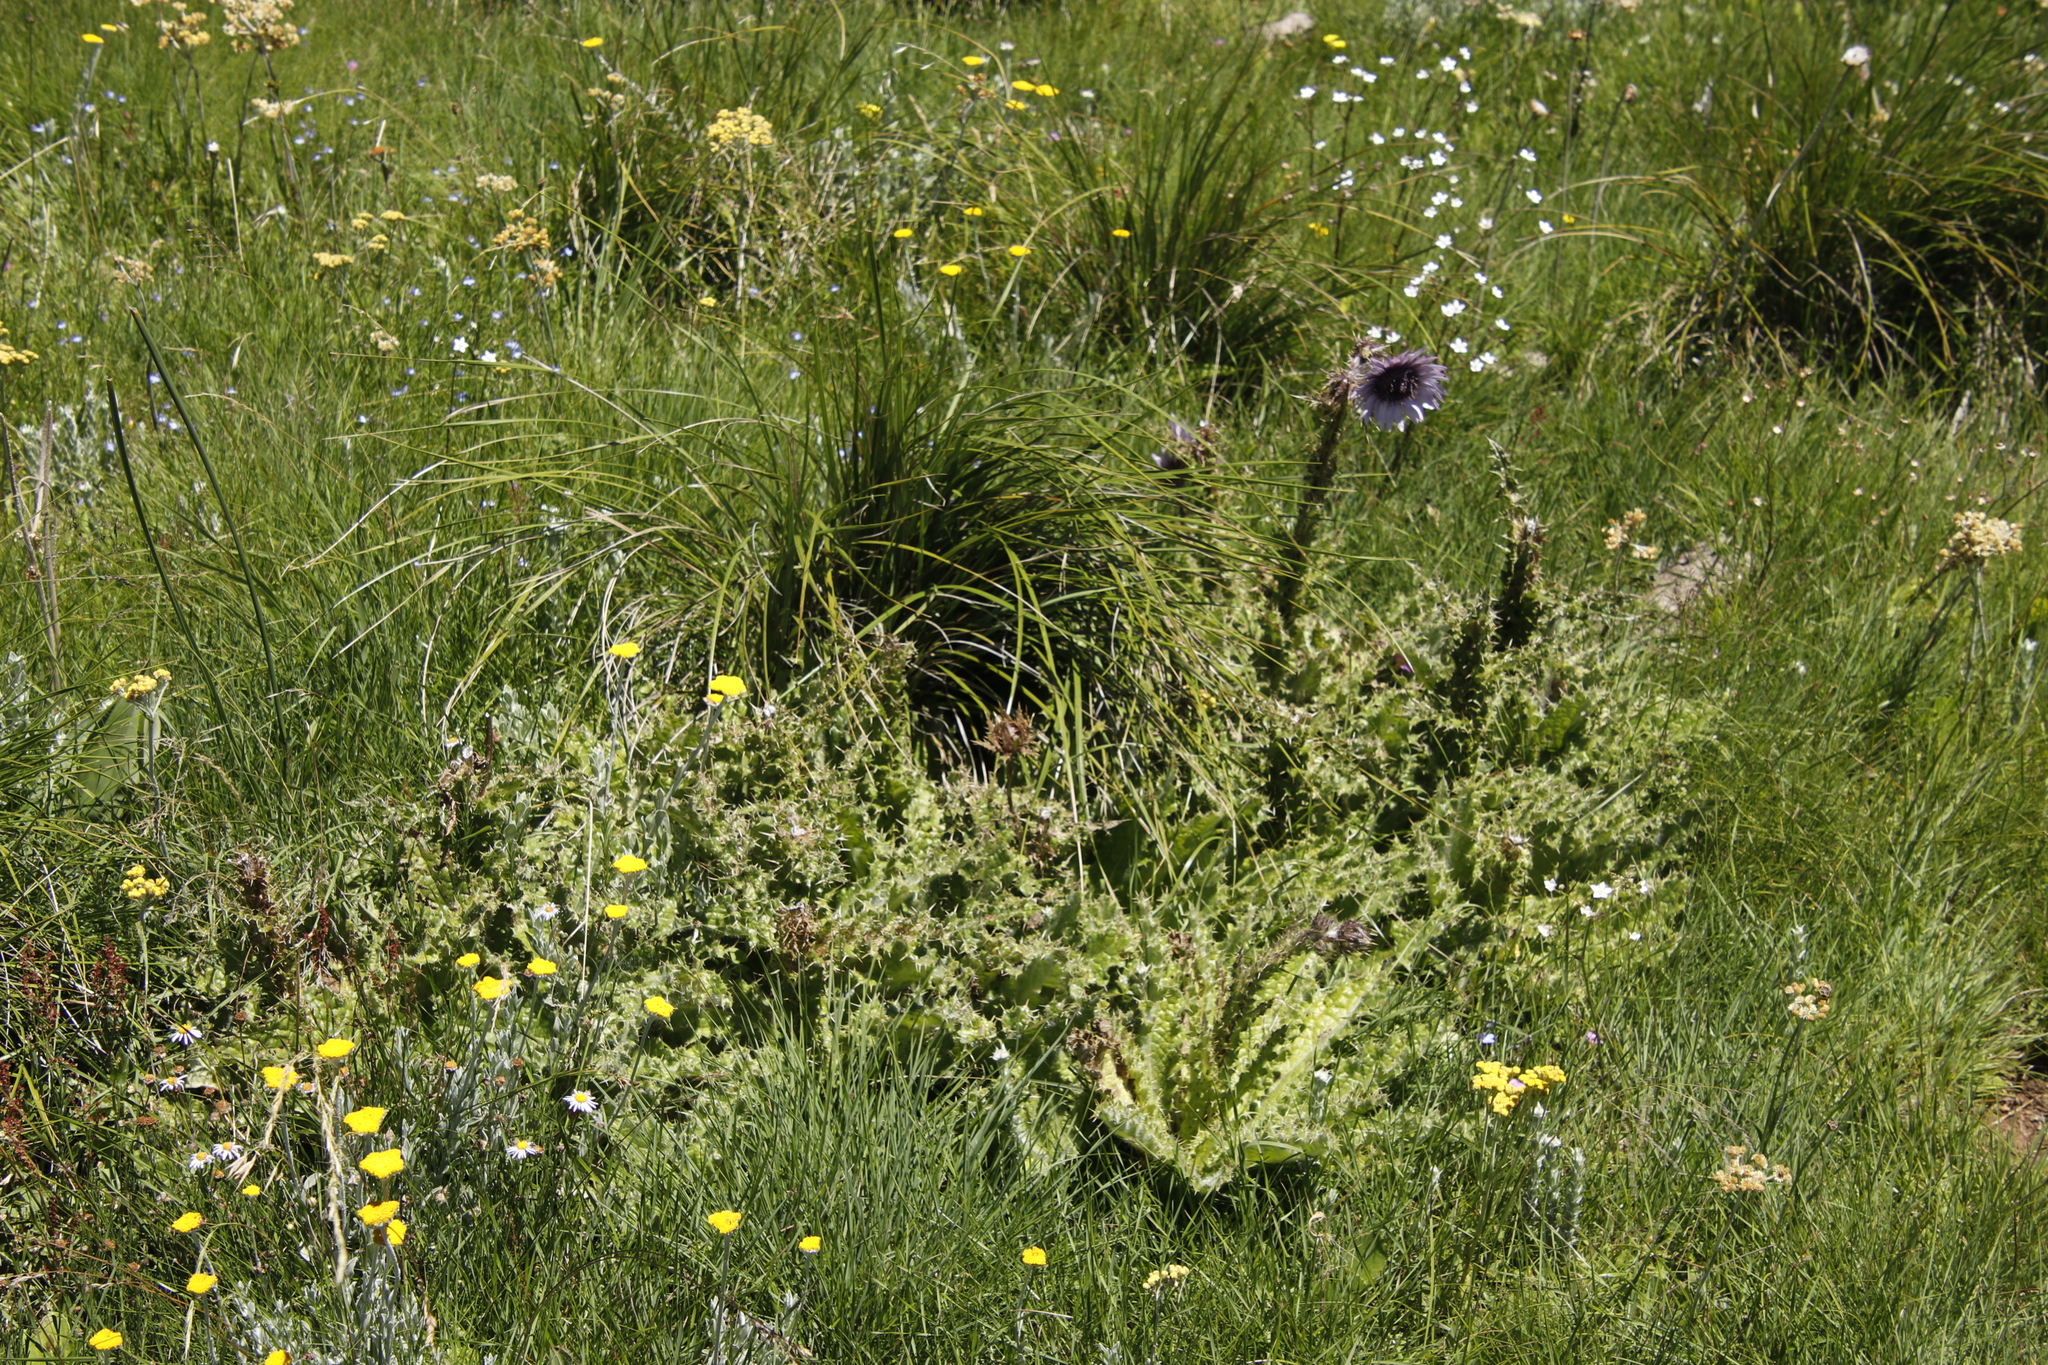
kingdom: Plantae
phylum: Tracheophyta
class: Magnoliopsida
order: Asterales
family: Asteraceae
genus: Berkheya
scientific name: Berkheya purpurea
